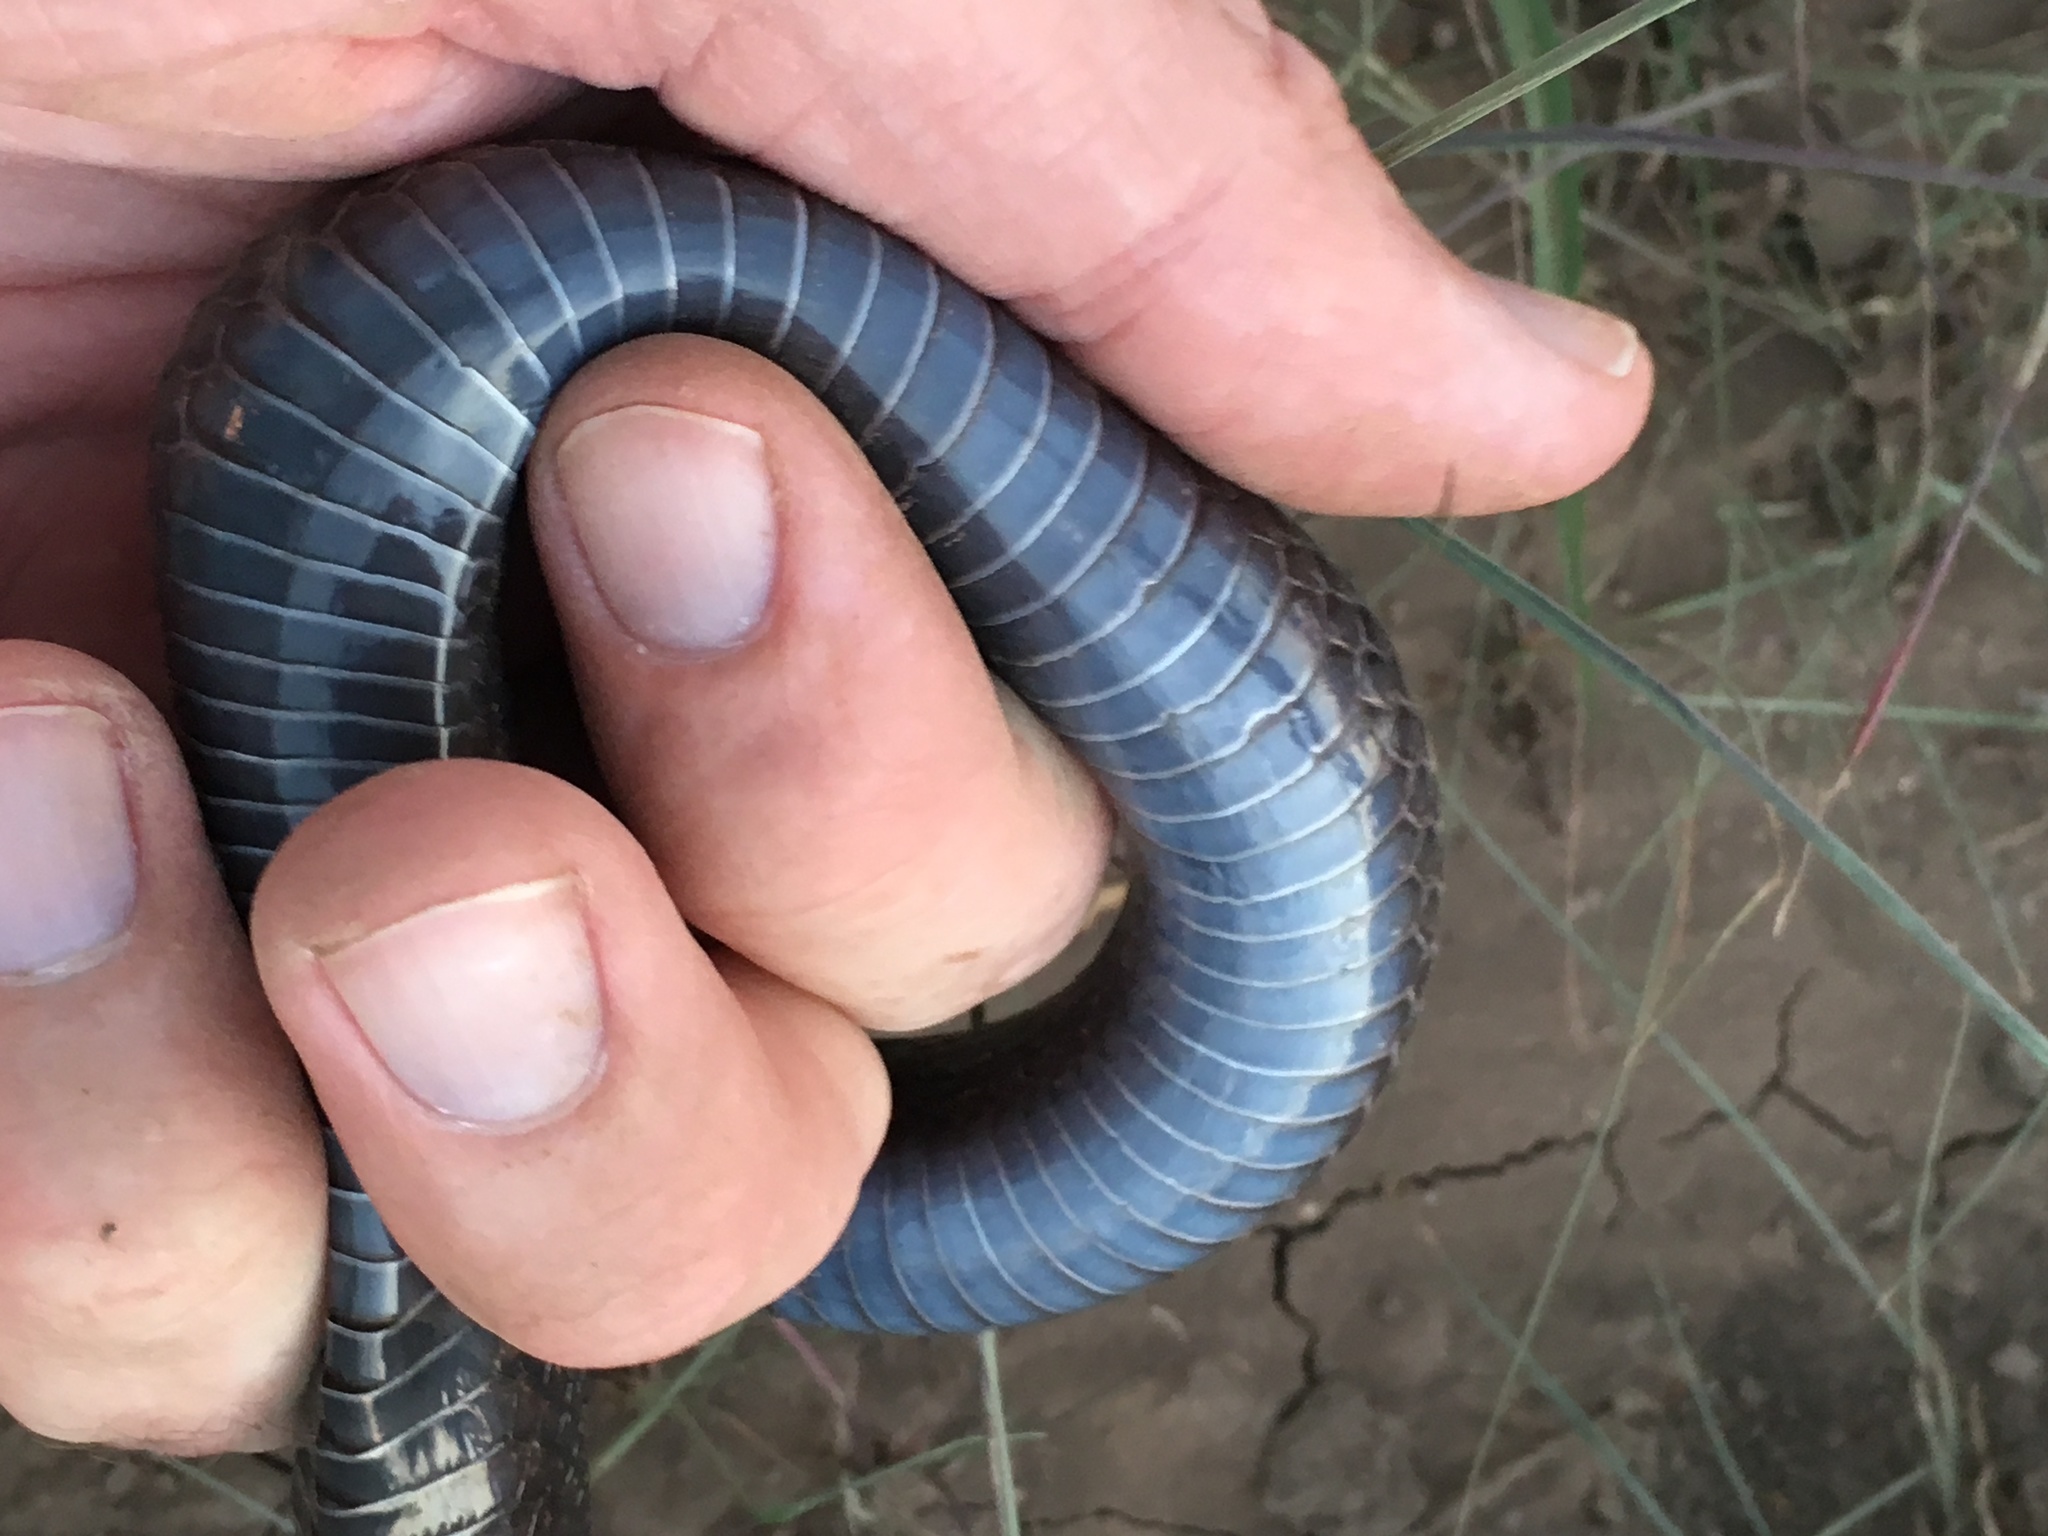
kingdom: Animalia
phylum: Chordata
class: Squamata
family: Colubridae
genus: Lampropeltis
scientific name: Lampropeltis splendida
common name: Desert kingsnake
